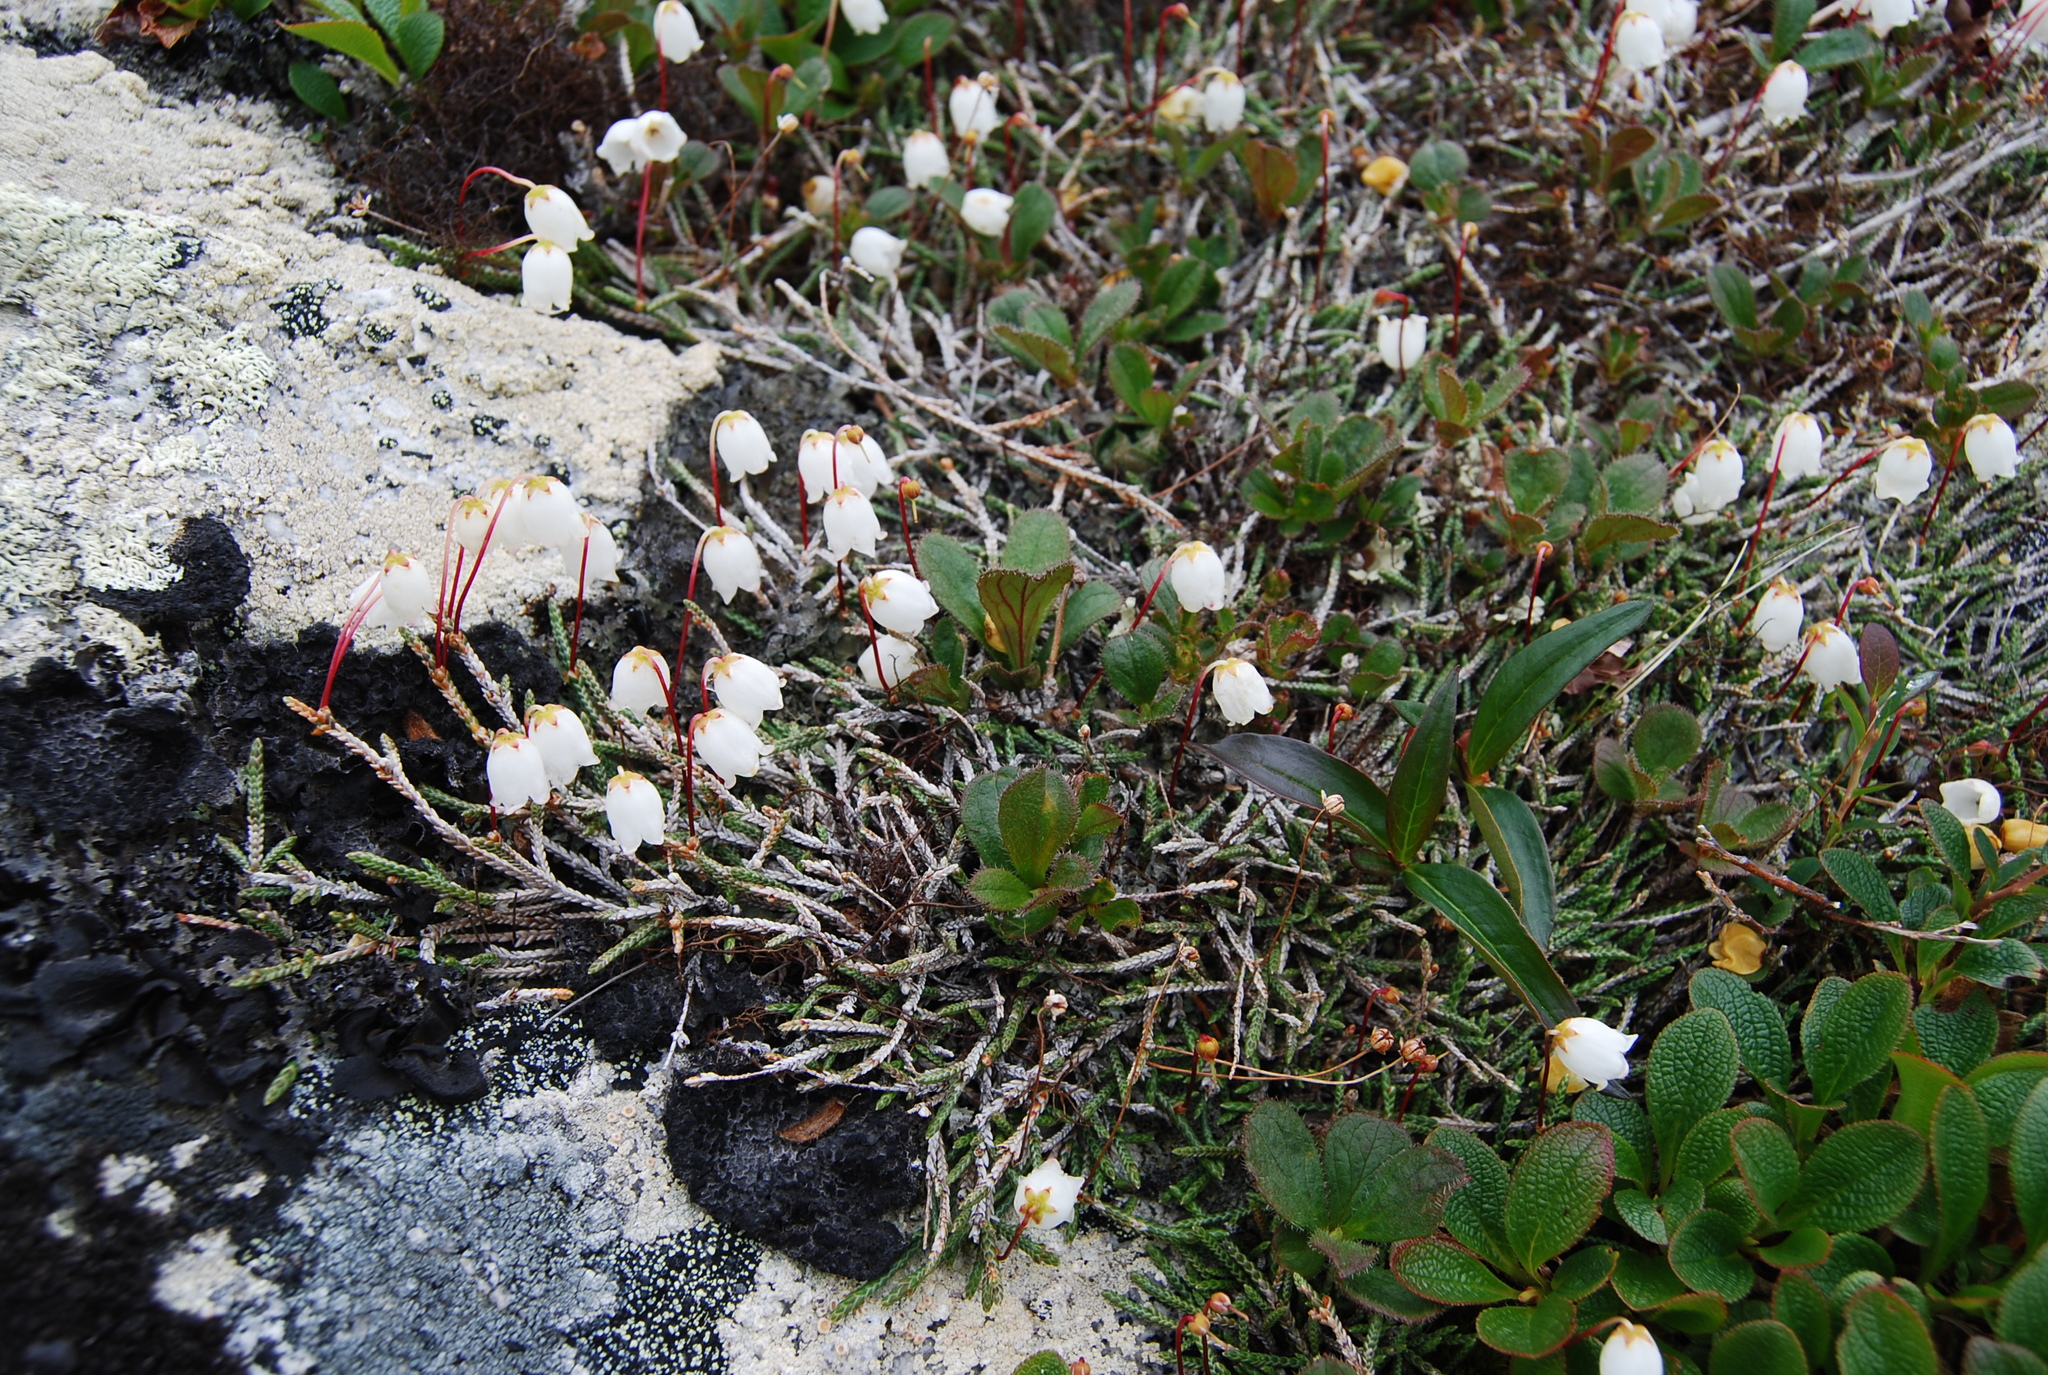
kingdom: Plantae
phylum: Tracheophyta
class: Magnoliopsida
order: Ericales
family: Ericaceae
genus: Cassiope
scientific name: Cassiope lycopodioides
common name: Clubmoss mountain heather
